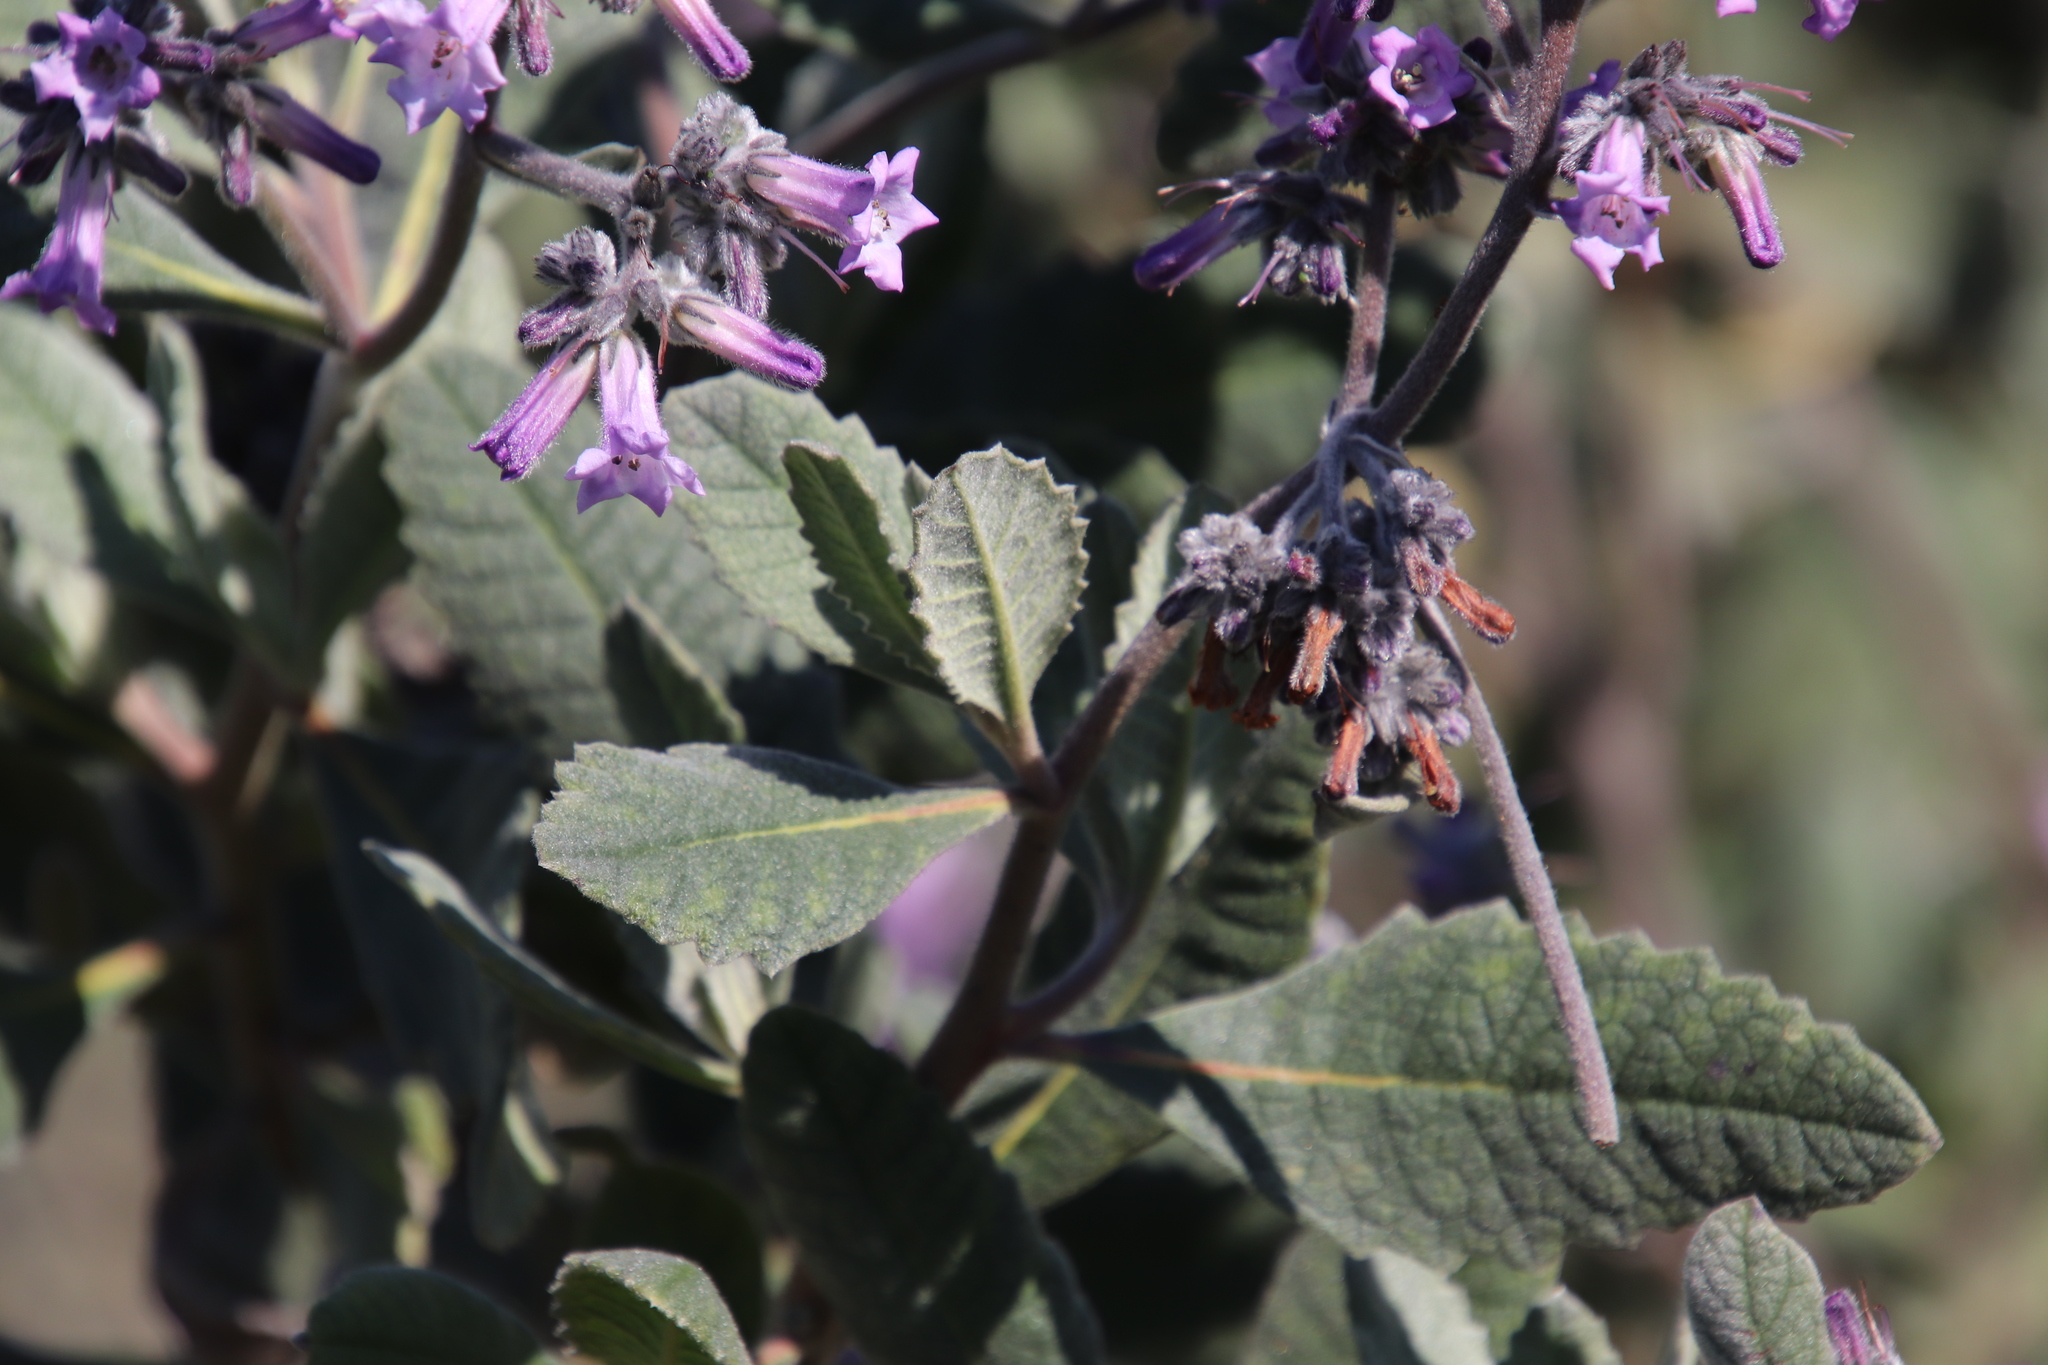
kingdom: Plantae
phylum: Tracheophyta
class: Magnoliopsida
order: Boraginales
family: Namaceae
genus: Eriodictyon
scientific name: Eriodictyon crassifolium
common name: Thick-leaf yerba-santa
